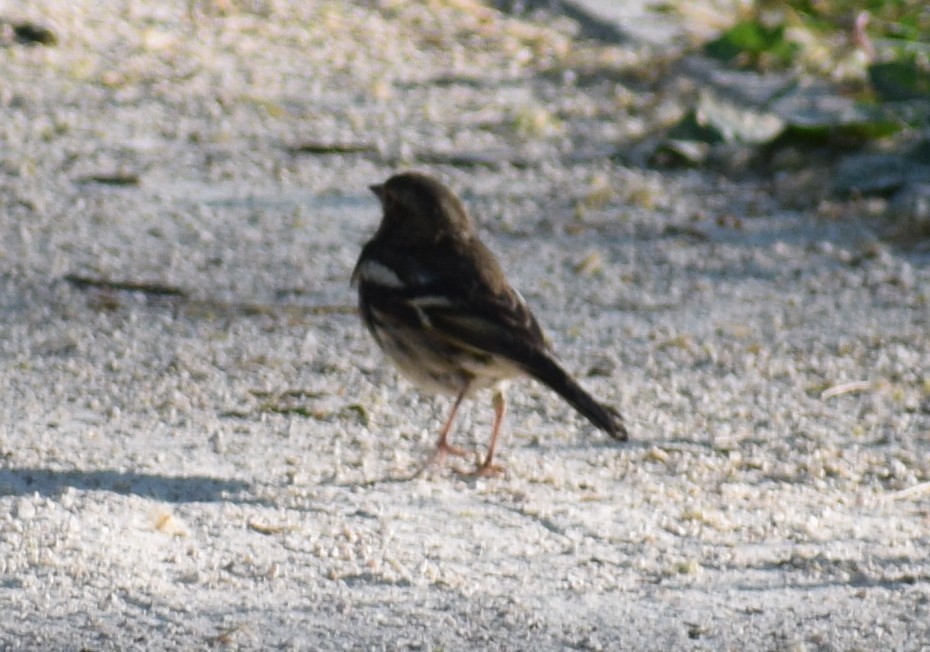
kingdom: Animalia
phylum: Chordata
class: Aves
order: Passeriformes
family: Fringillidae
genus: Fringilla
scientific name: Fringilla coelebs
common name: Common chaffinch
